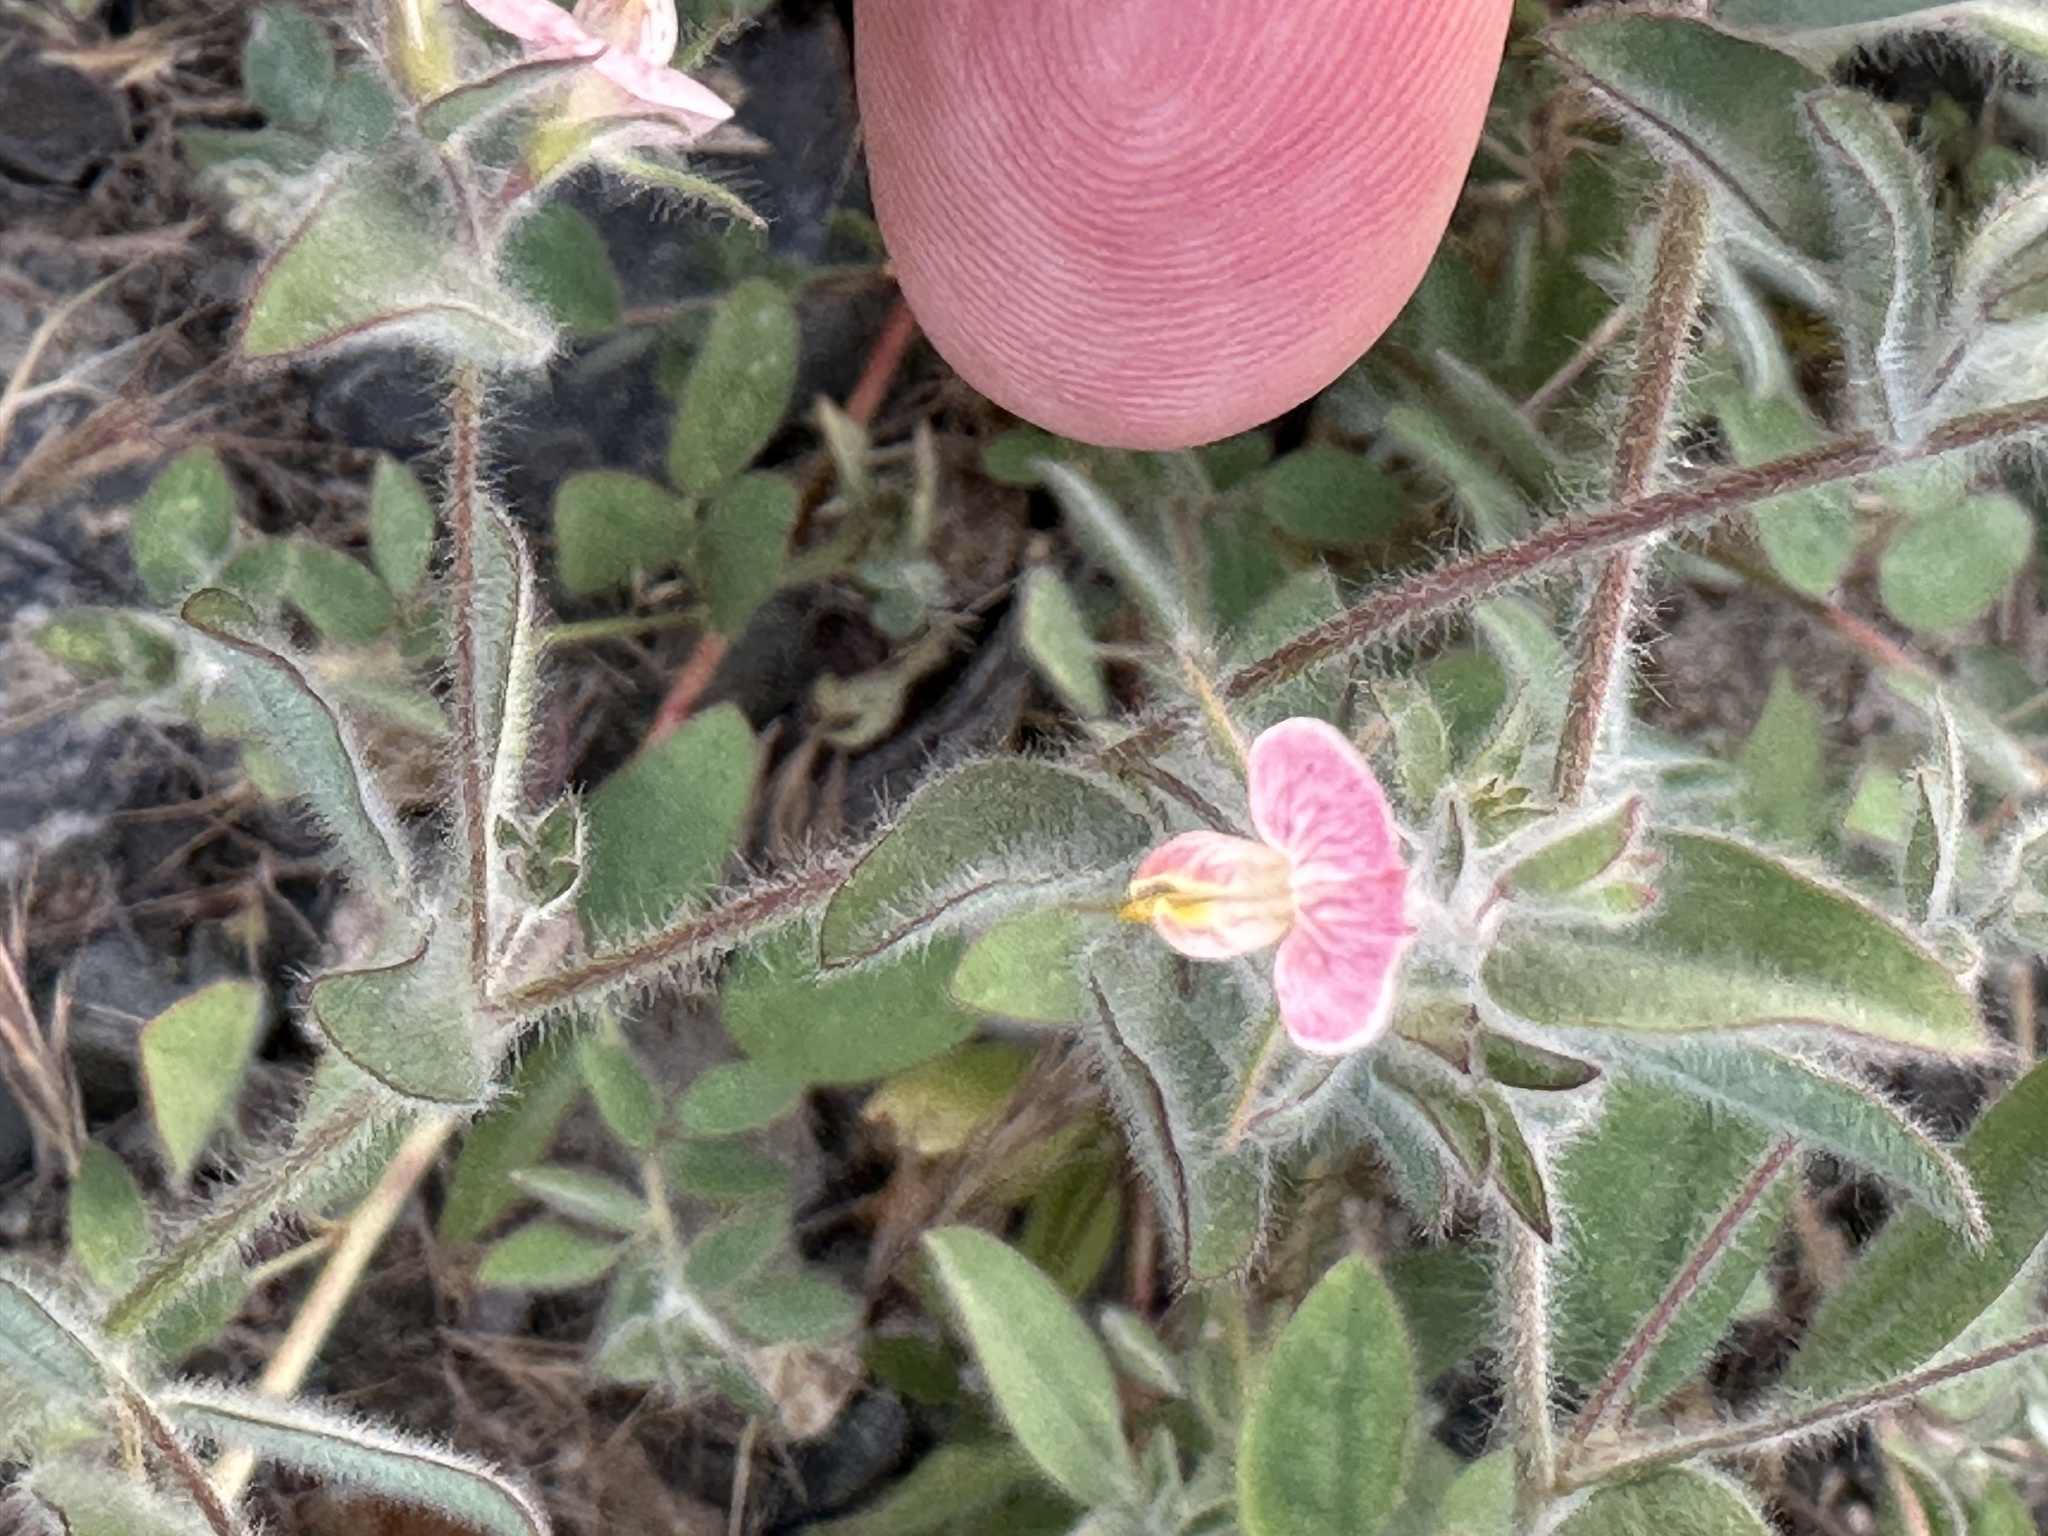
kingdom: Plantae
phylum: Tracheophyta
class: Magnoliopsida
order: Fabales
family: Fabaceae
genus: Acmispon
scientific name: Acmispon americanus
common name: American bird's-foot trefoil
